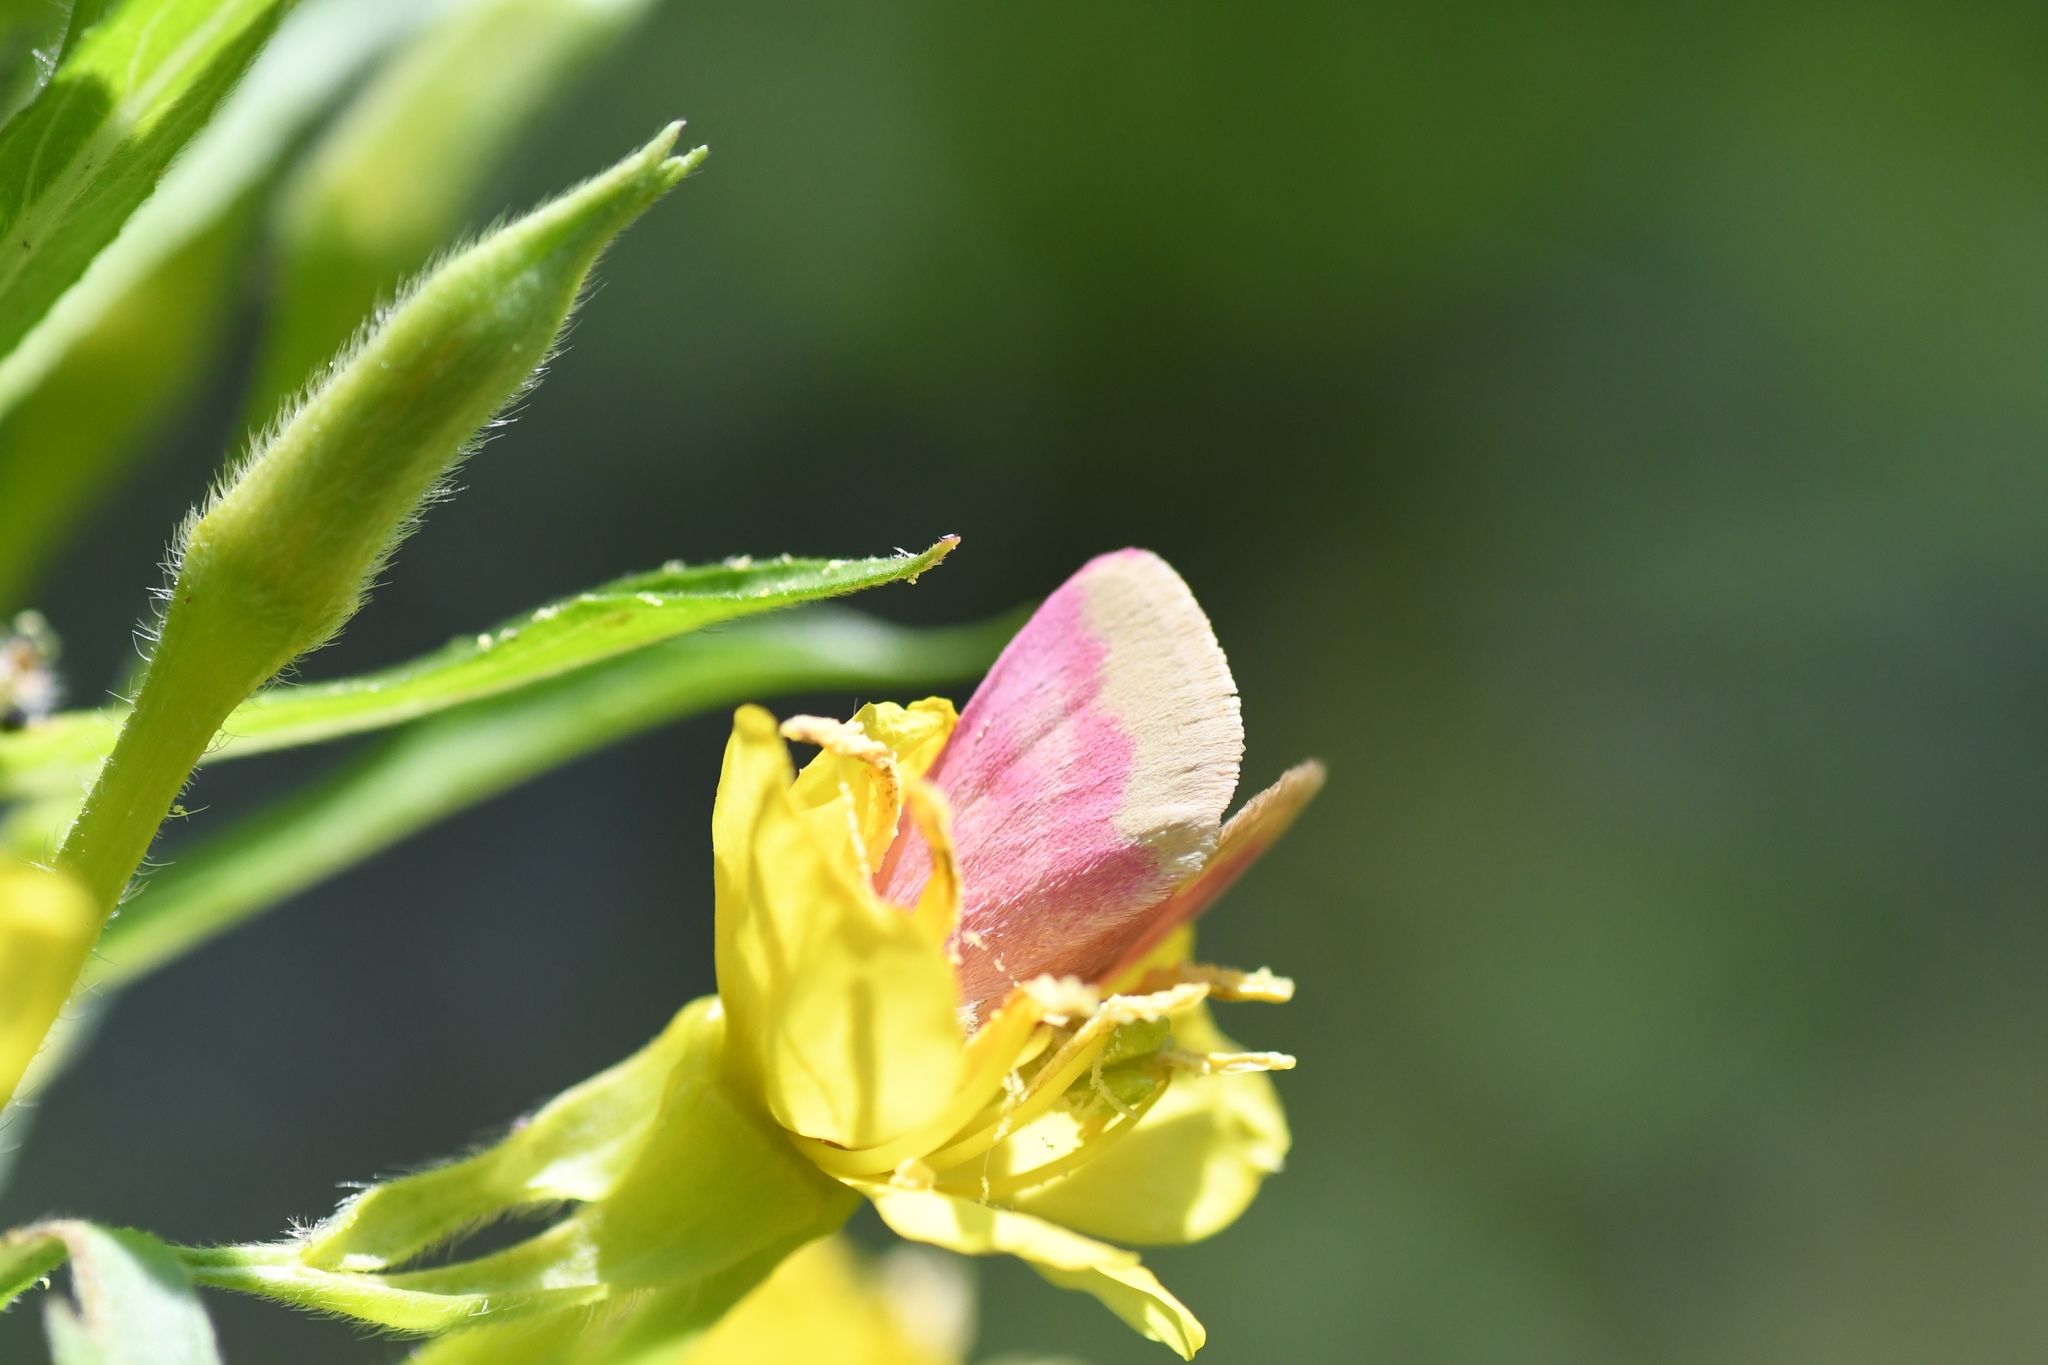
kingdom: Animalia
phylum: Arthropoda
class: Insecta
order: Lepidoptera
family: Noctuidae
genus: Schinia
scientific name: Schinia florida
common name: Primrose moth
